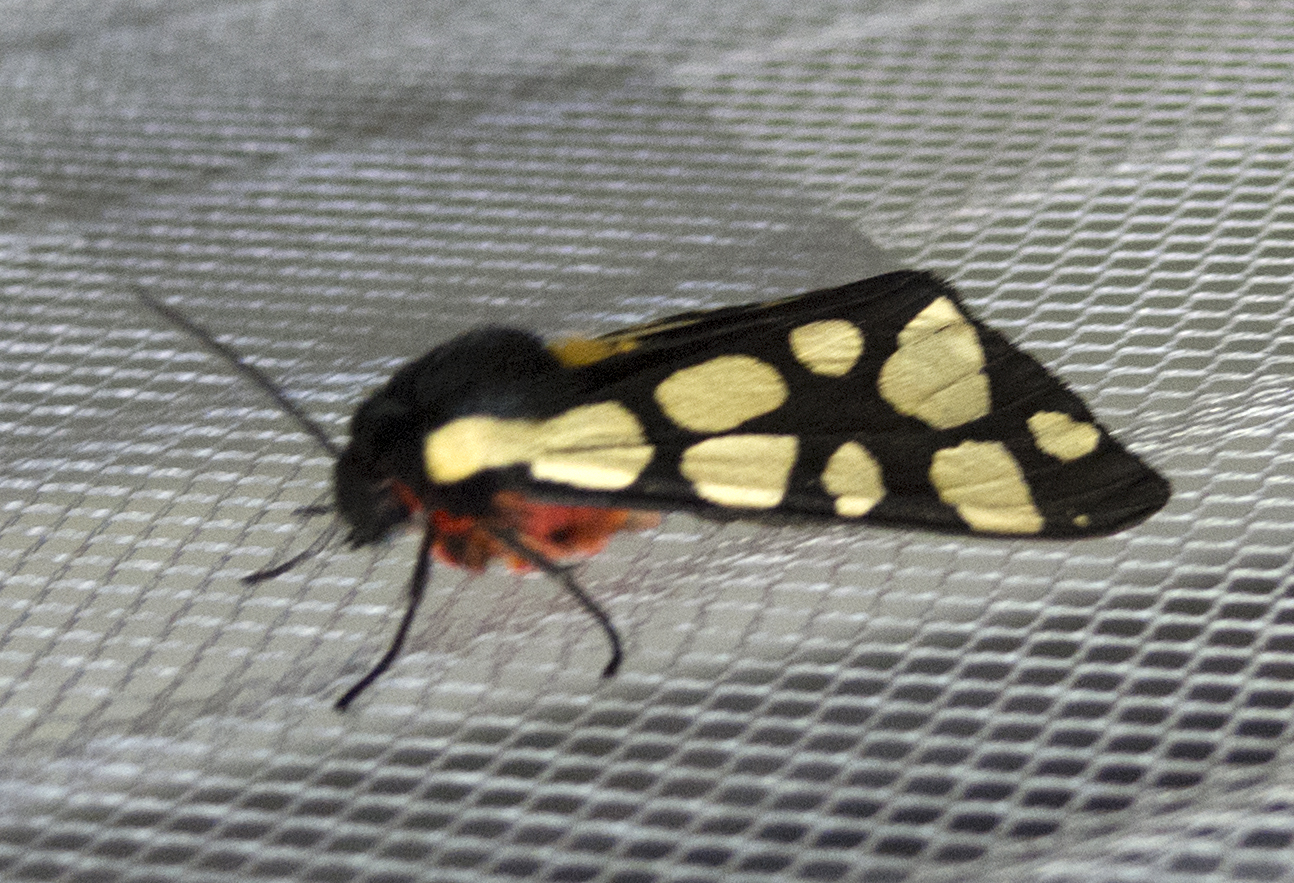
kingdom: Animalia
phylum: Arthropoda
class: Insecta
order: Lepidoptera
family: Erebidae
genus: Epicallia
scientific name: Epicallia villica
